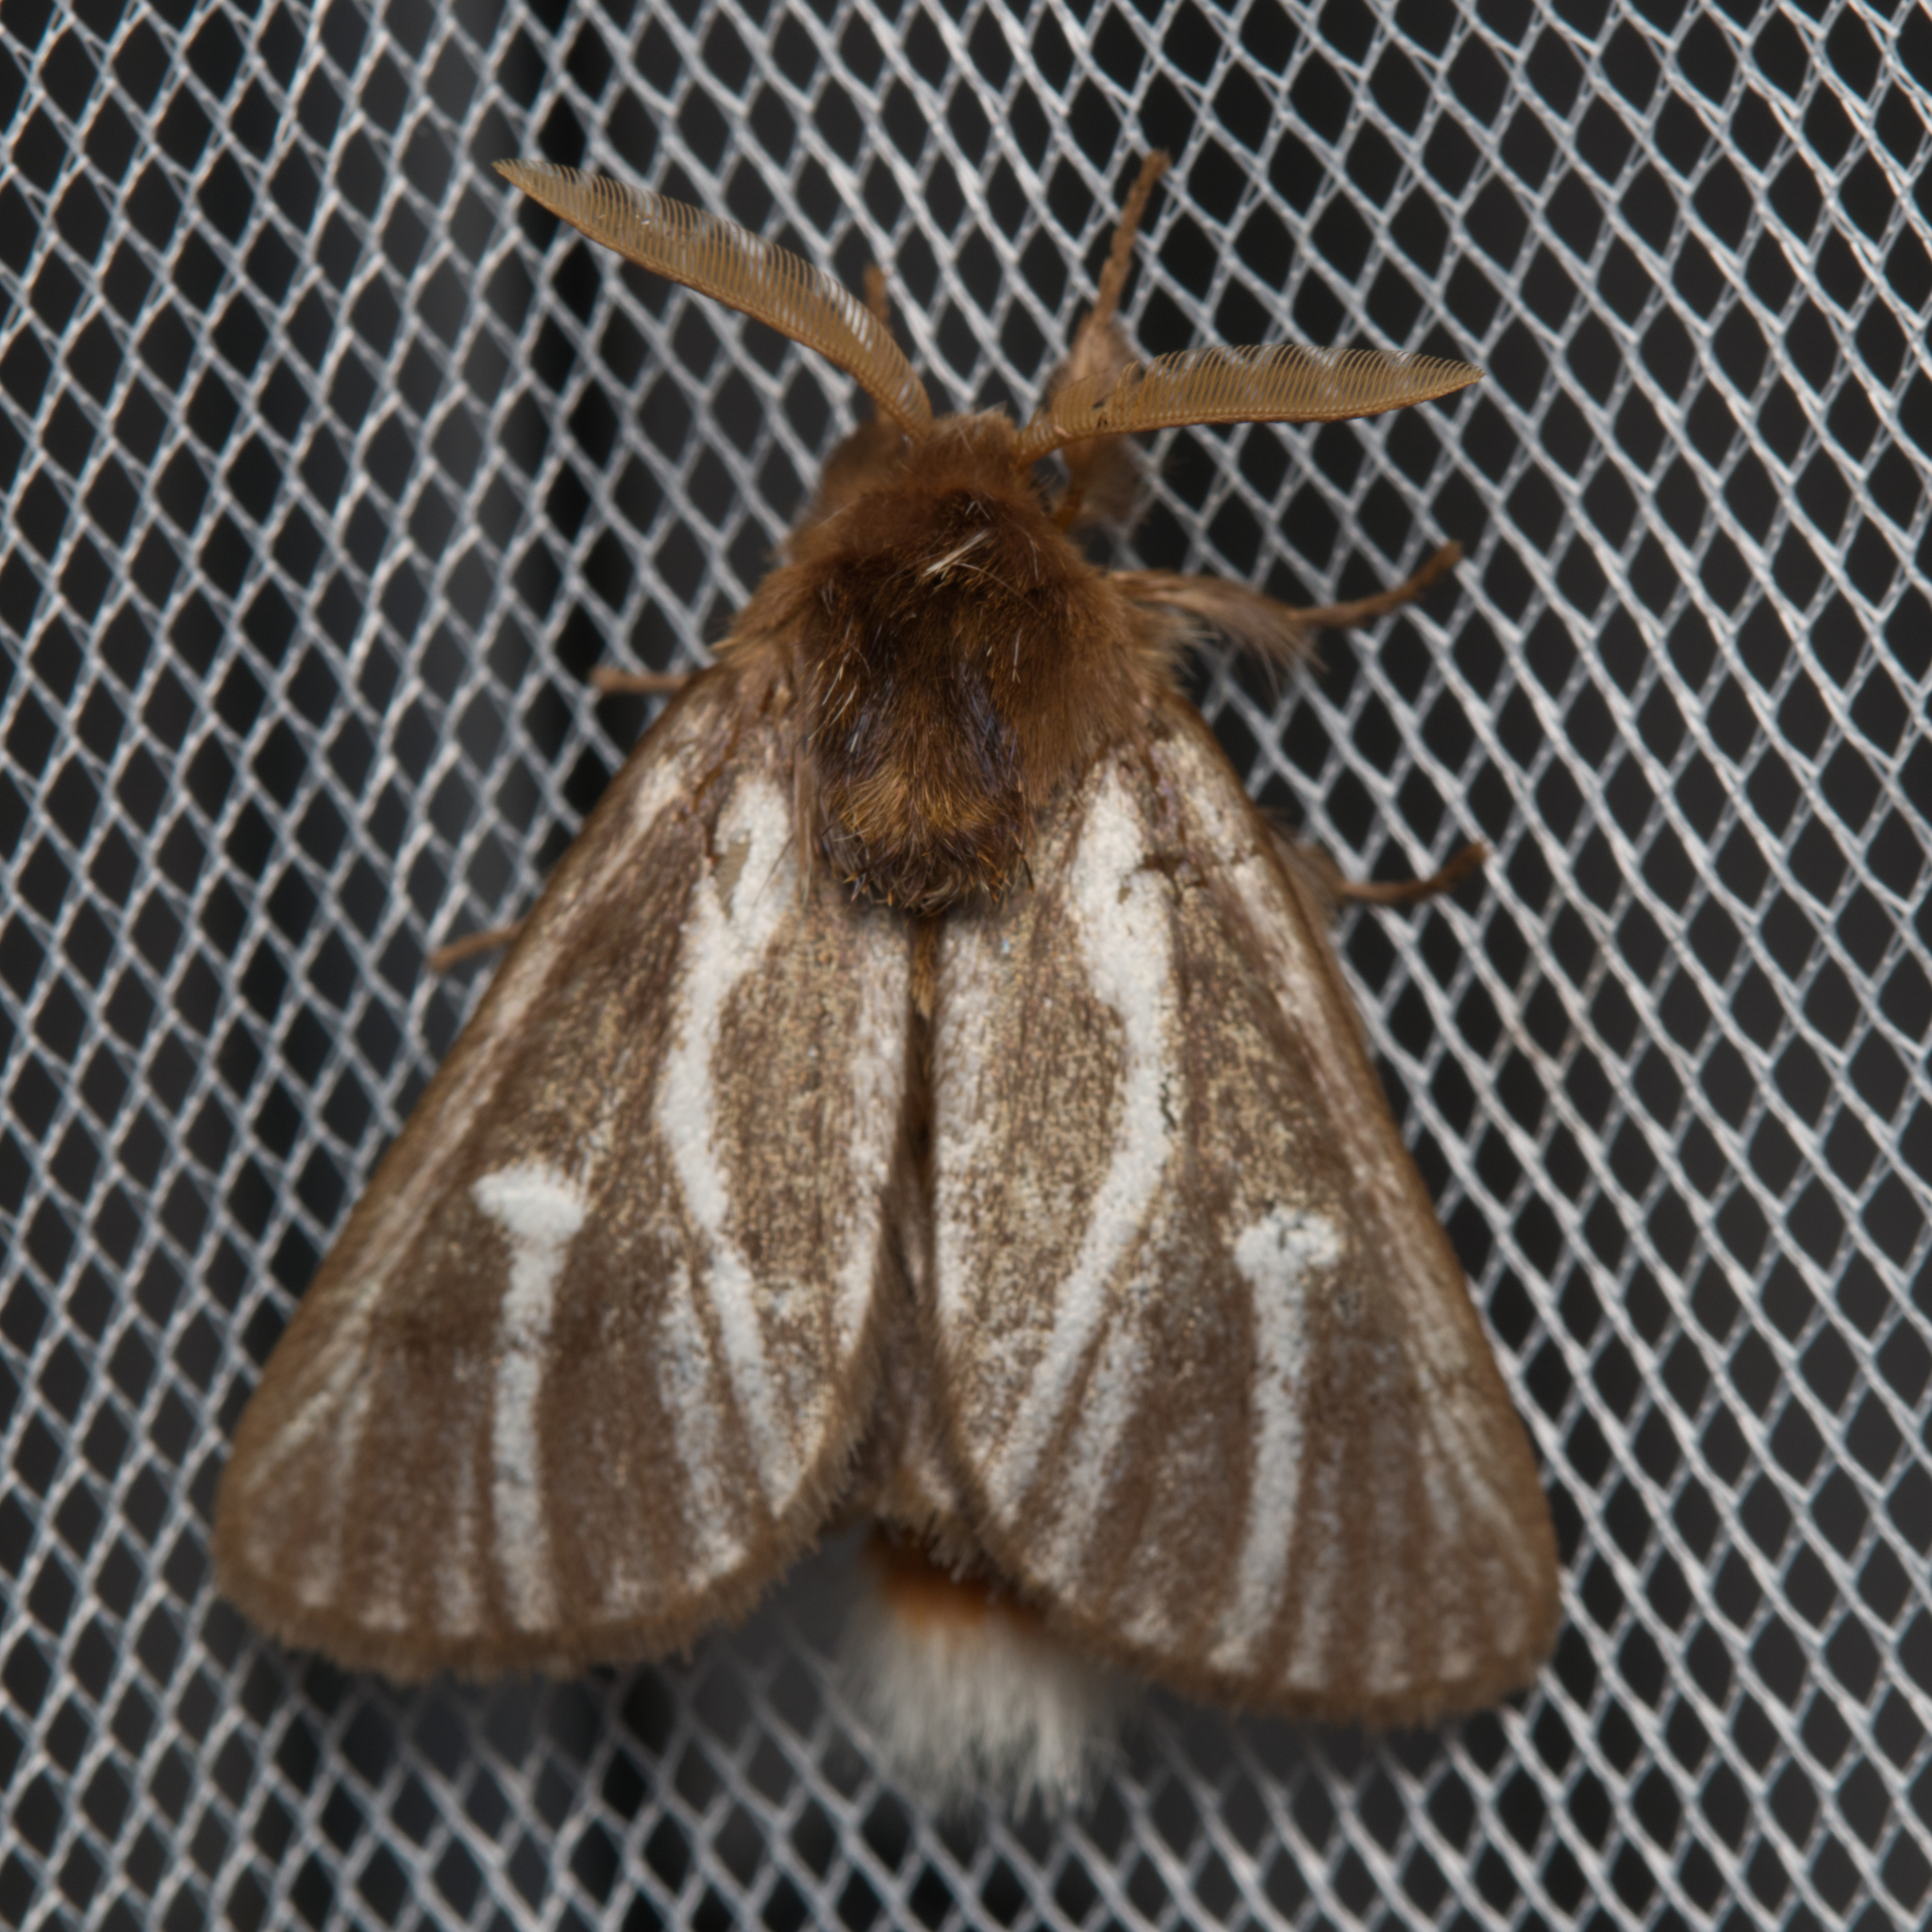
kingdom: Animalia
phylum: Arthropoda
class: Insecta
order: Lepidoptera
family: Notodontidae
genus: Ochrogaster
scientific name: Ochrogaster lunifer
